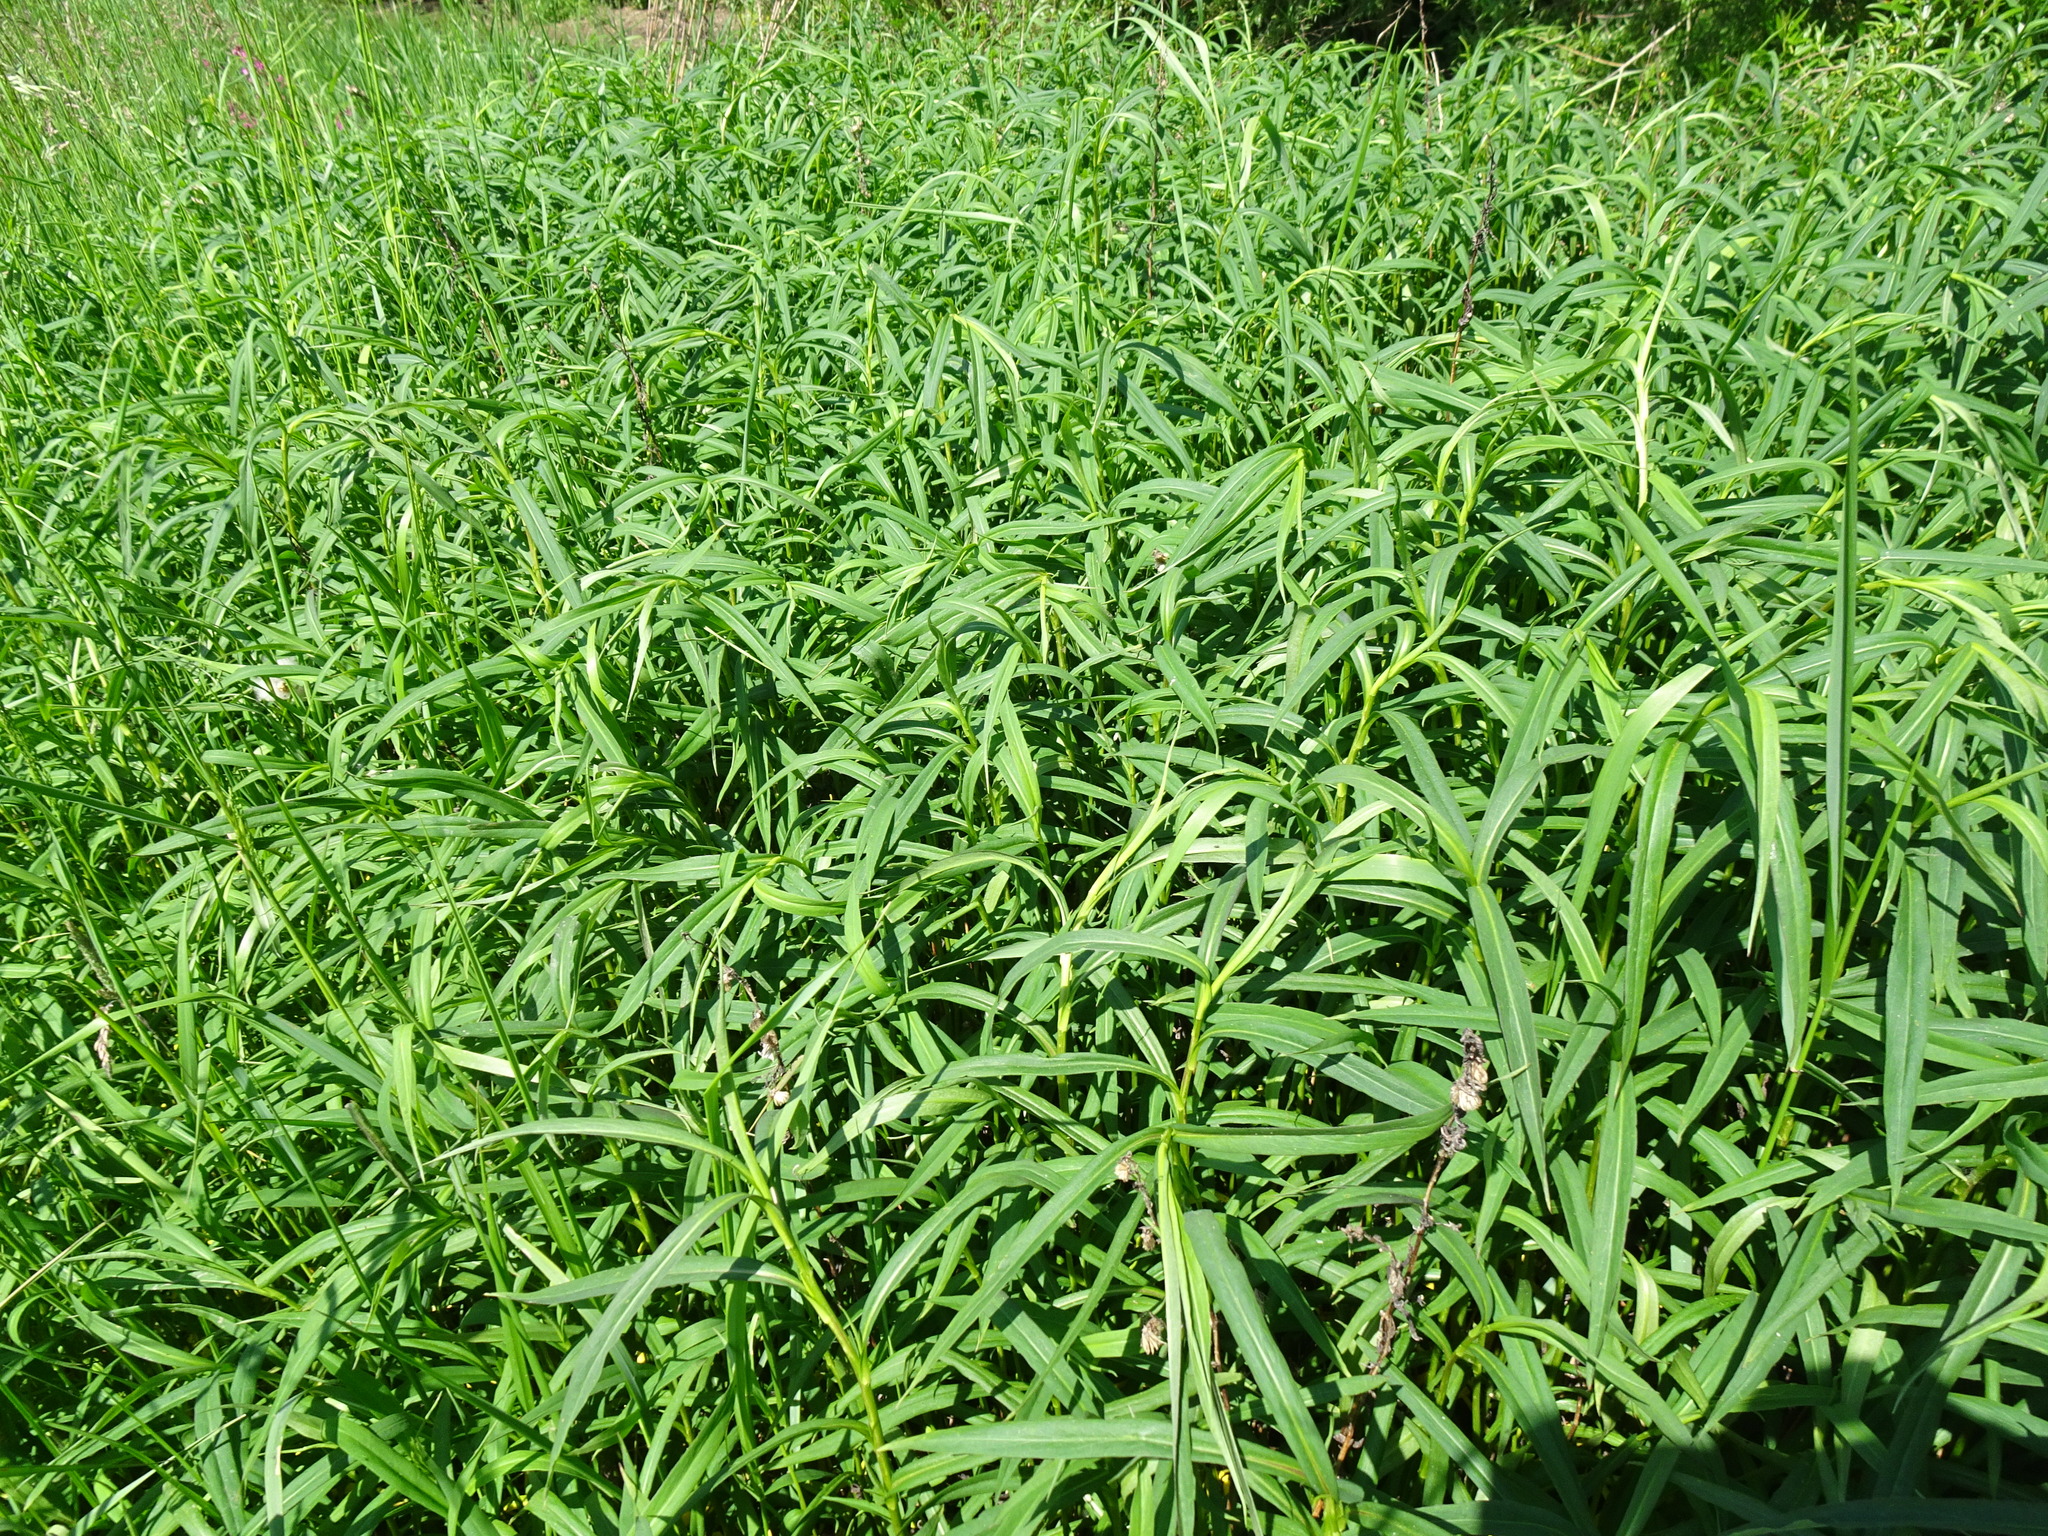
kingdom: Plantae
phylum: Tracheophyta
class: Magnoliopsida
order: Myrtales
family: Onagraceae
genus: Chamaenerion
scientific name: Chamaenerion angustifolium
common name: Fireweed
